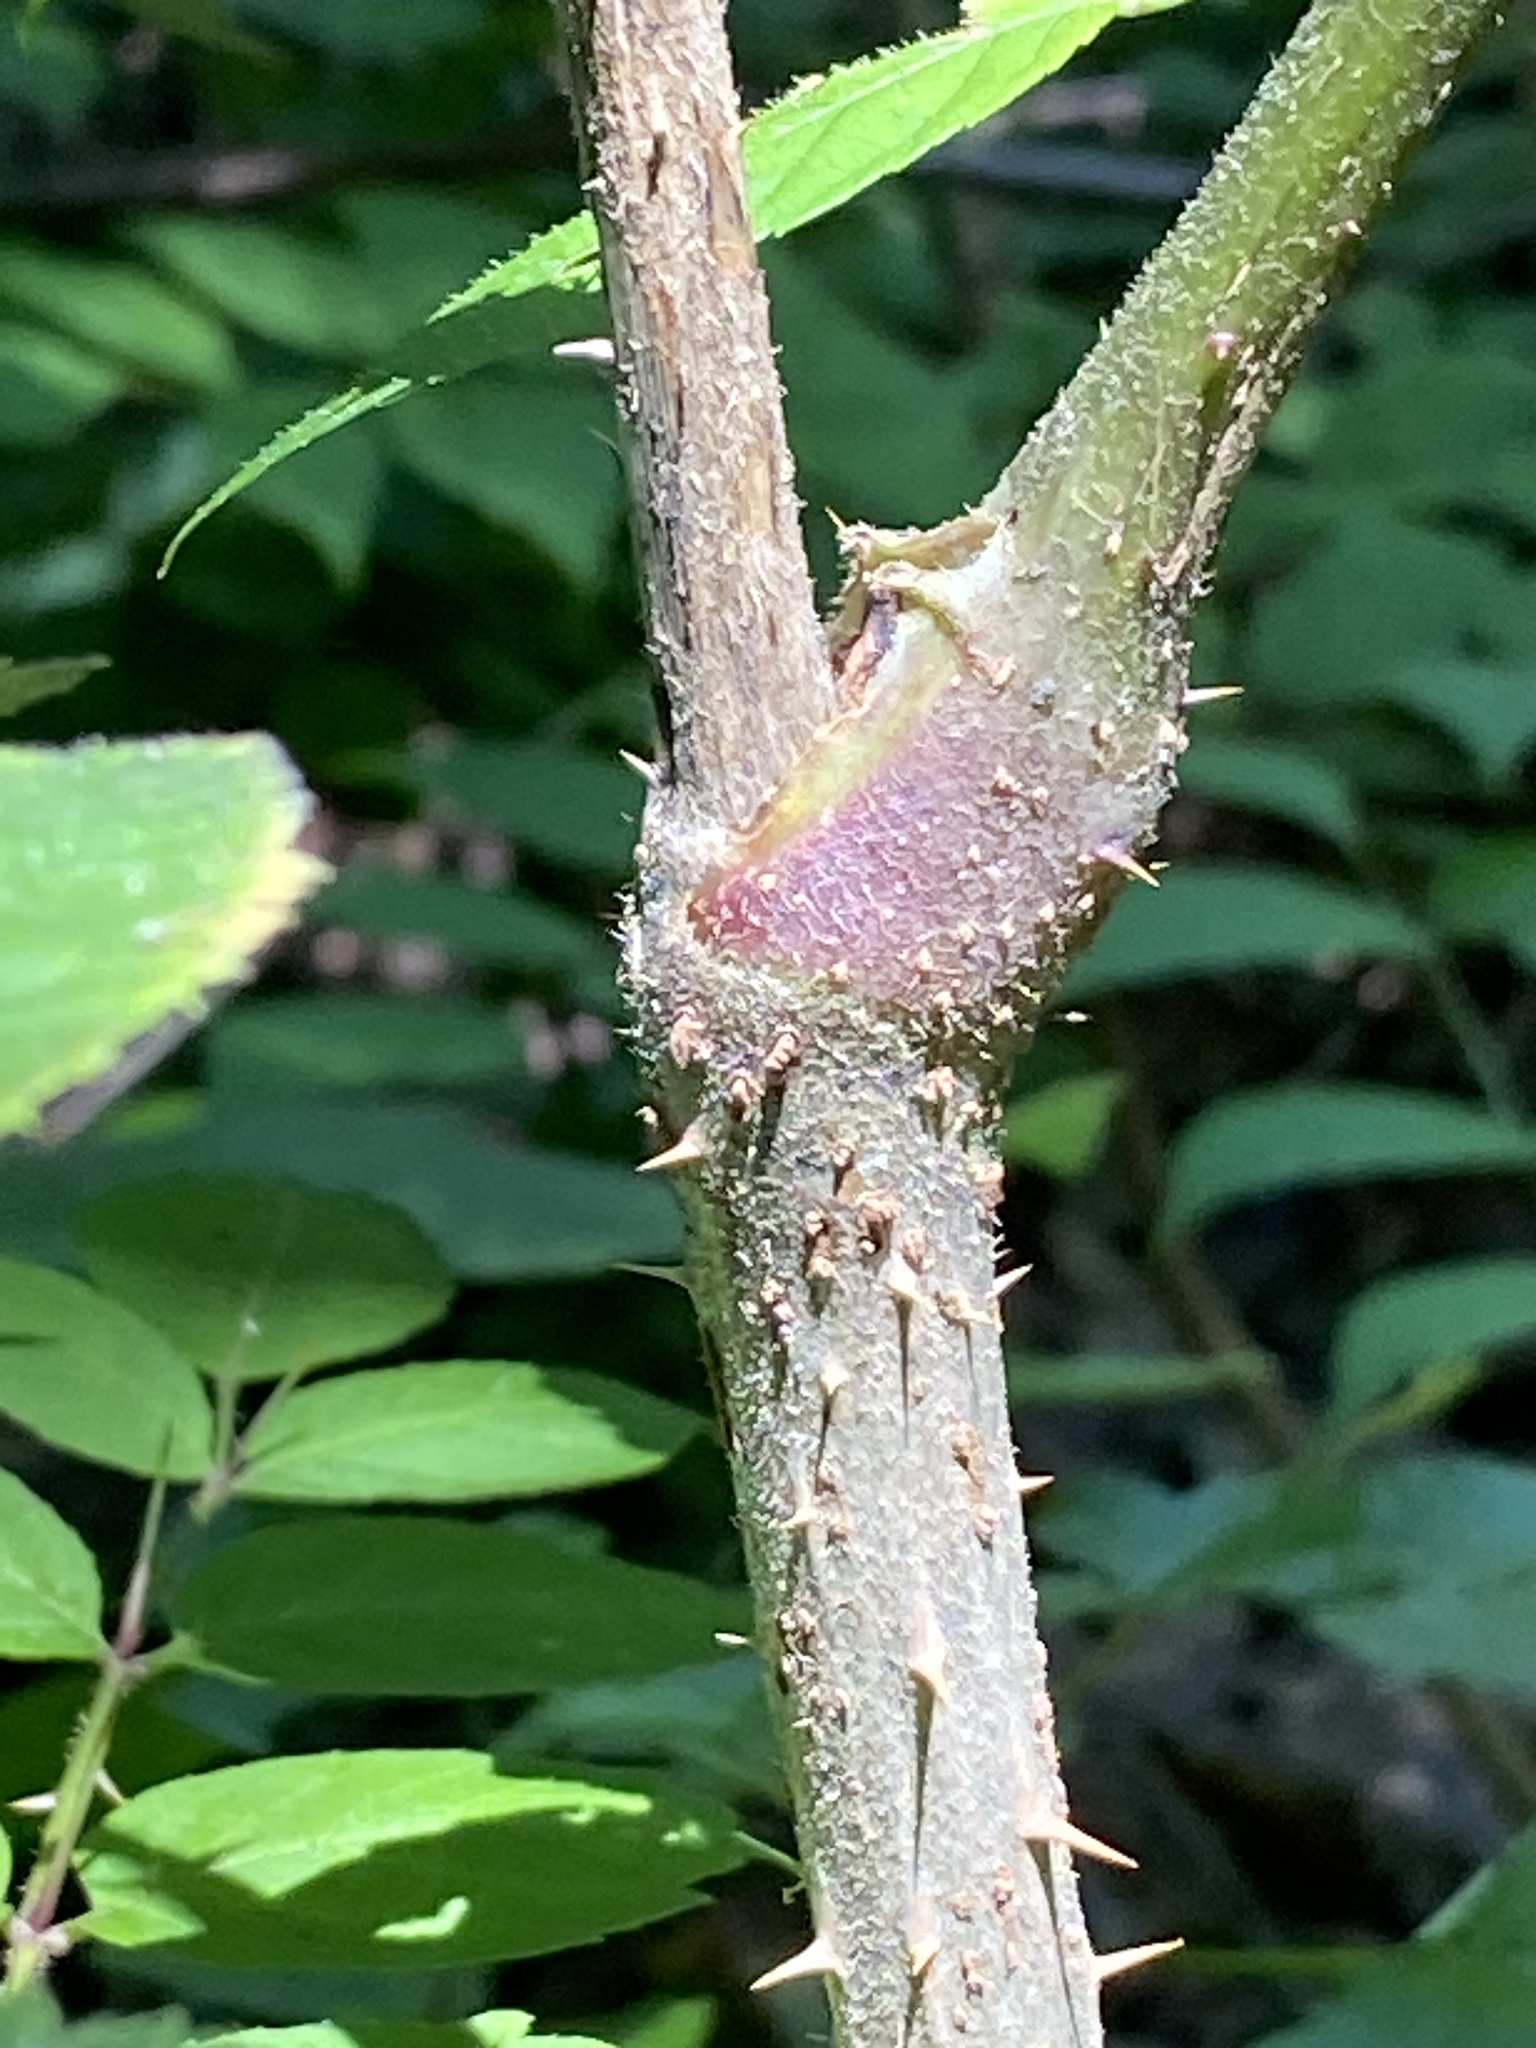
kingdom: Plantae
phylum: Tracheophyta
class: Magnoliopsida
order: Apiales
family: Araliaceae
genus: Aralia
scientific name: Aralia elata
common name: Japanese angelica-tree
